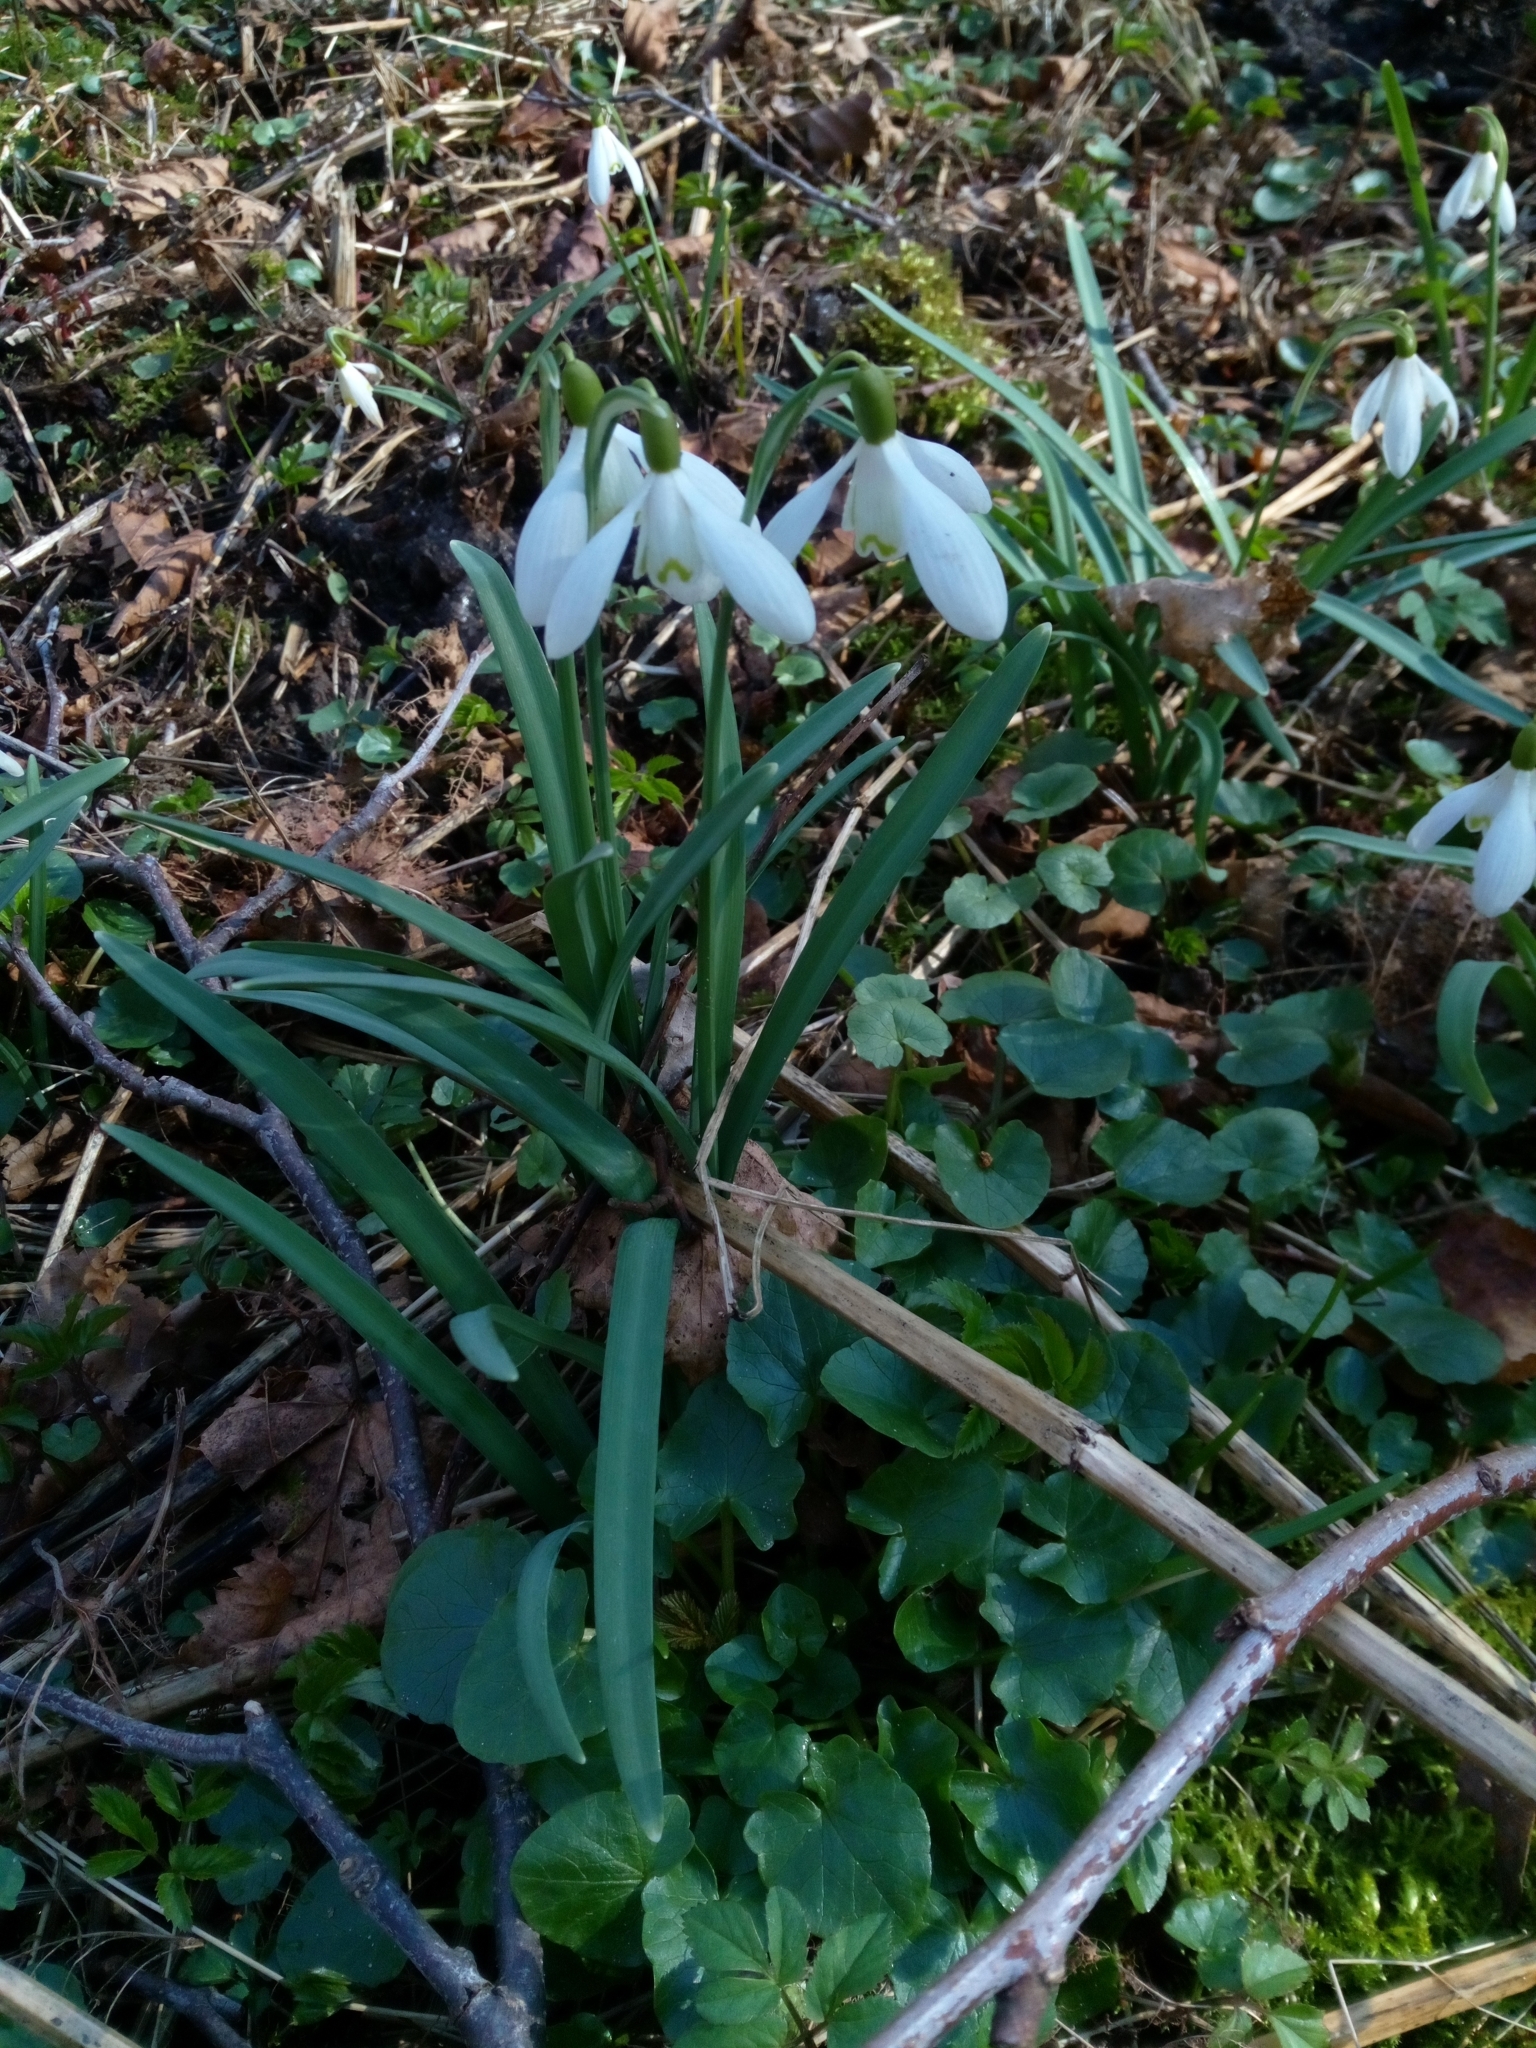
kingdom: Plantae
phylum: Tracheophyta
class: Liliopsida
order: Asparagales
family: Amaryllidaceae
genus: Galanthus
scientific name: Galanthus nivalis
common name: Snowdrop
